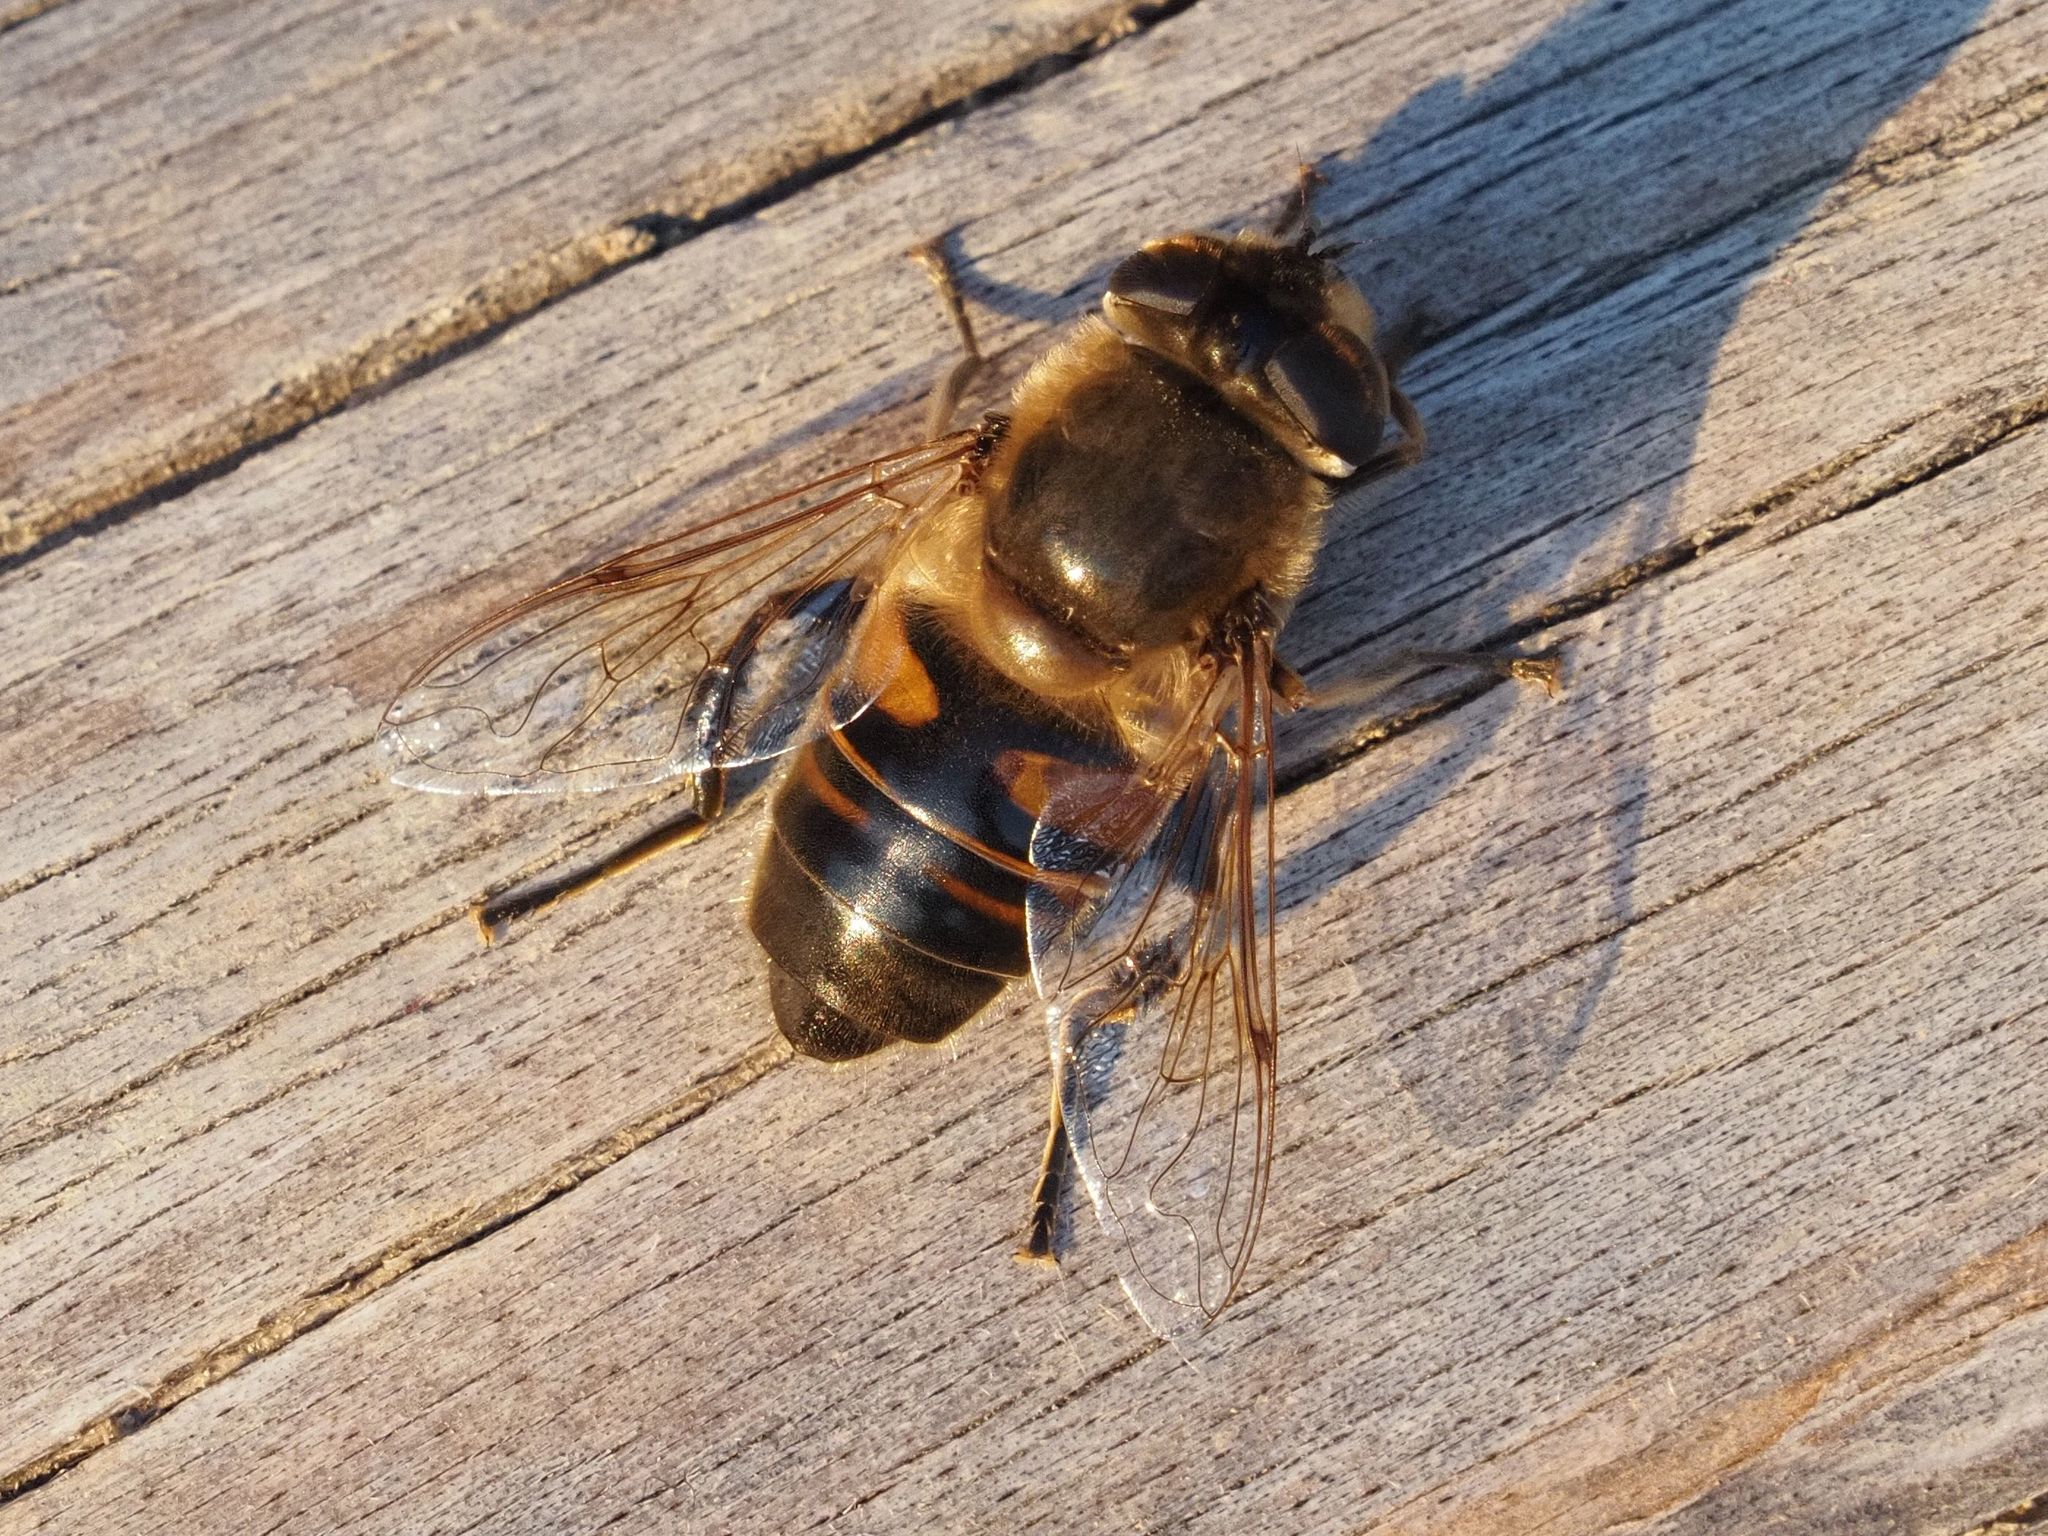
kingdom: Animalia
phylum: Arthropoda
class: Insecta
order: Diptera
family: Syrphidae
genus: Eristalis
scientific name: Eristalis tenax
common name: Drone fly
